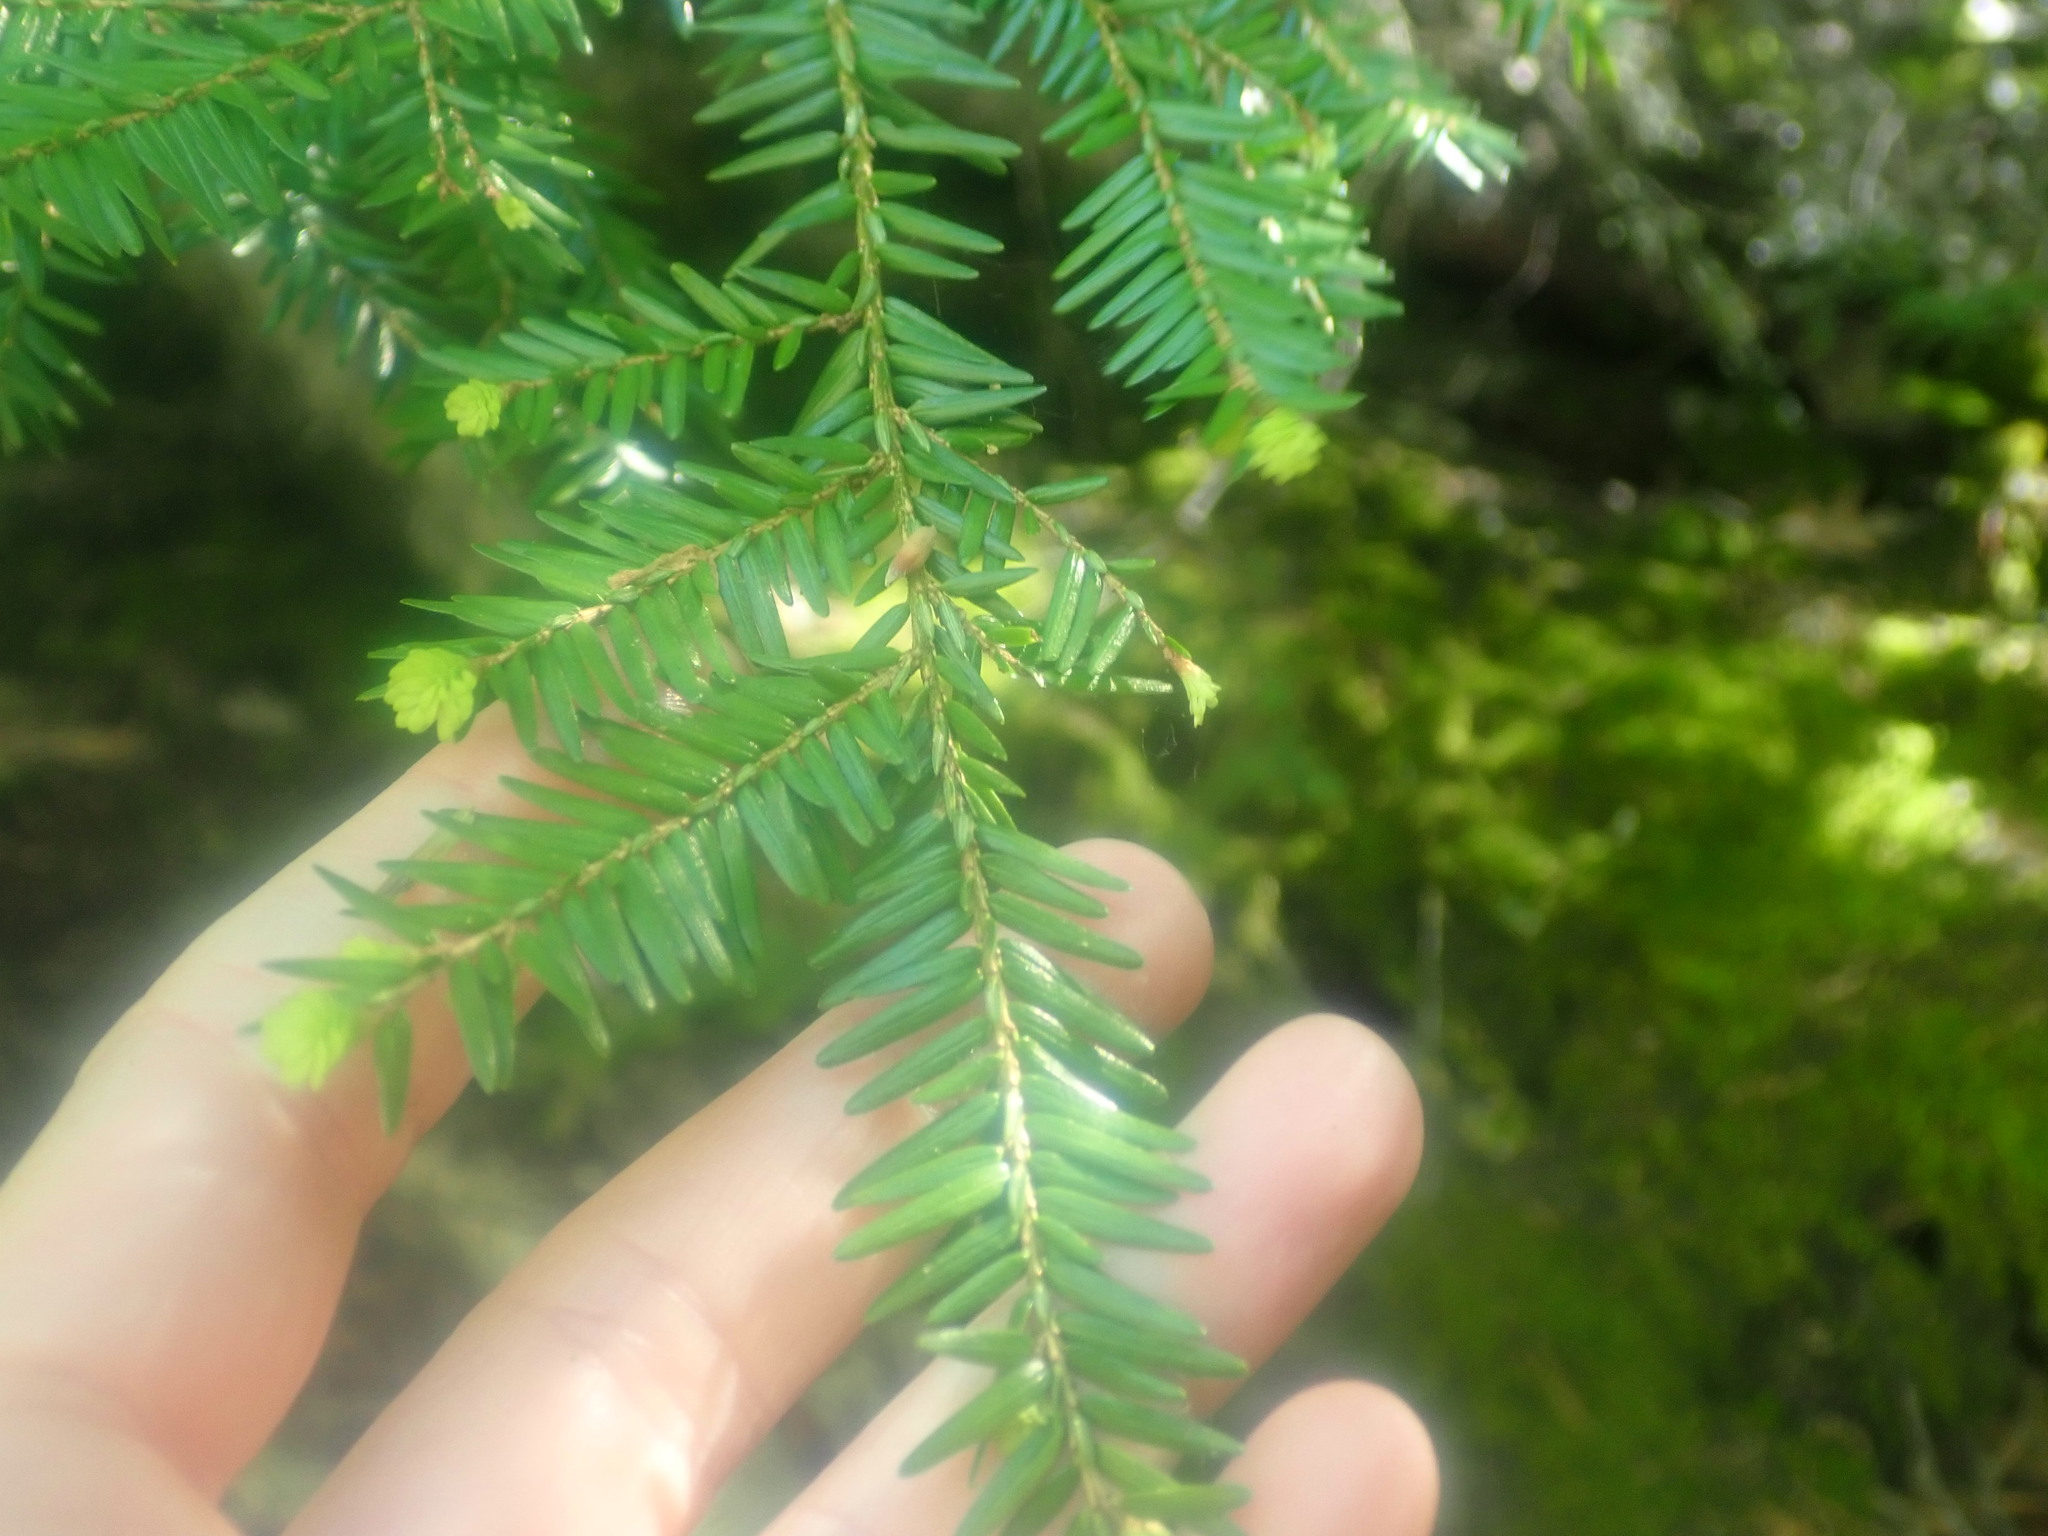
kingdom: Plantae
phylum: Tracheophyta
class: Pinopsida
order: Pinales
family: Pinaceae
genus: Tsuga
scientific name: Tsuga canadensis
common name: Eastern hemlock
